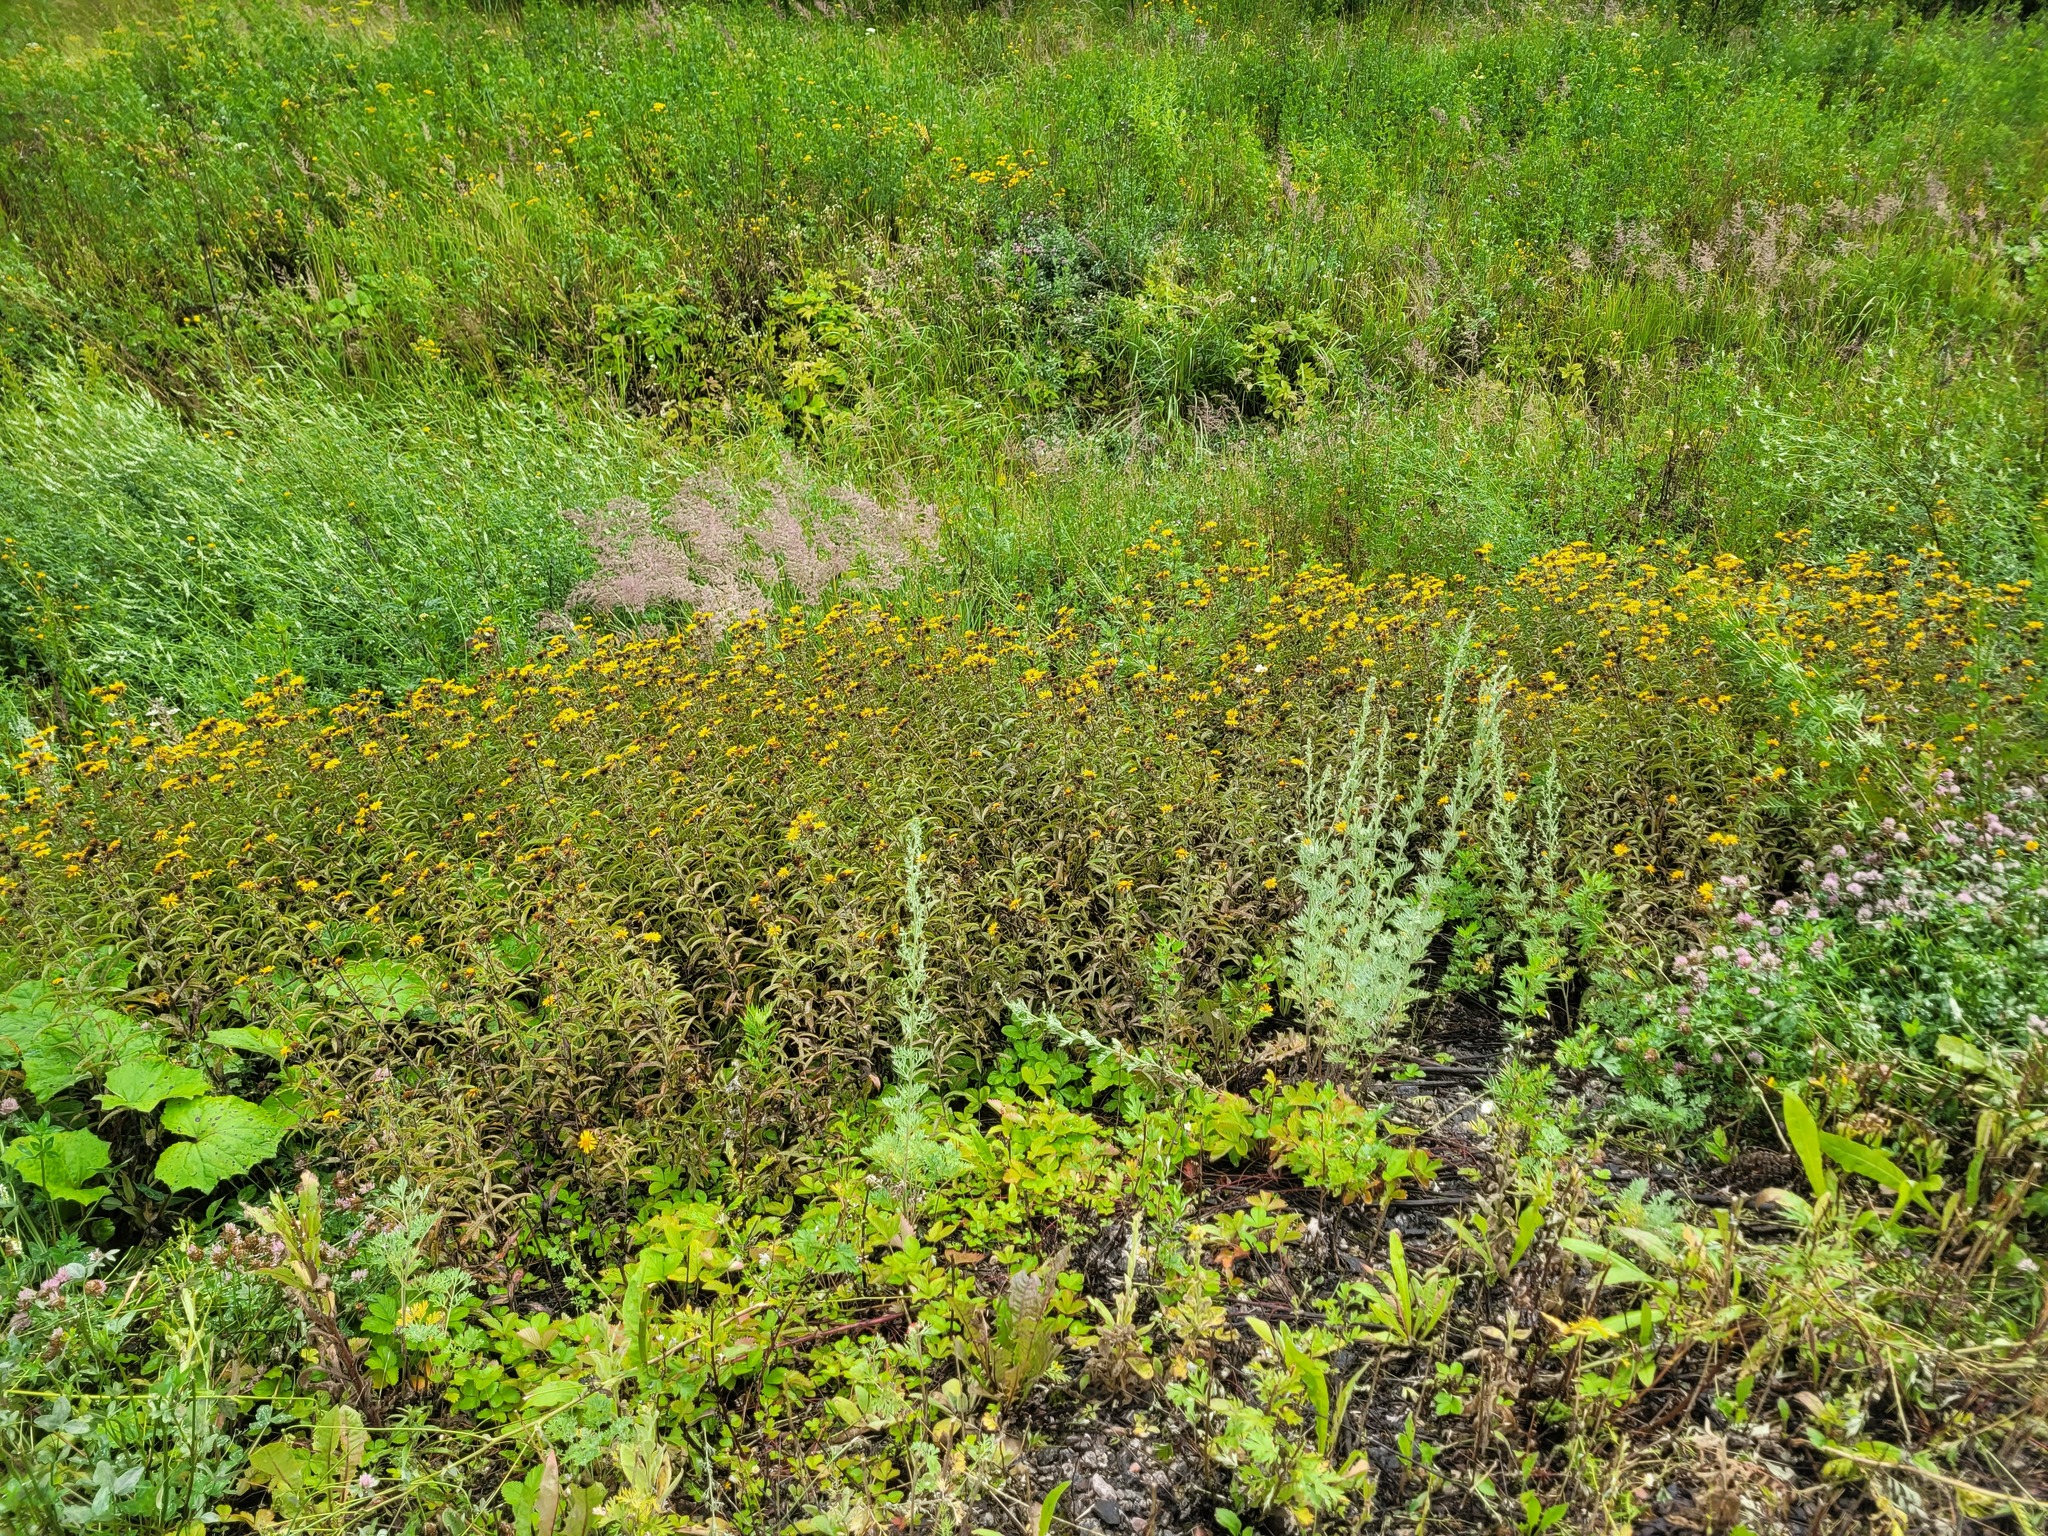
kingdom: Plantae
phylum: Tracheophyta
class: Magnoliopsida
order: Asterales
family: Asteraceae
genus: Pentanema
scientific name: Pentanema salicinum
